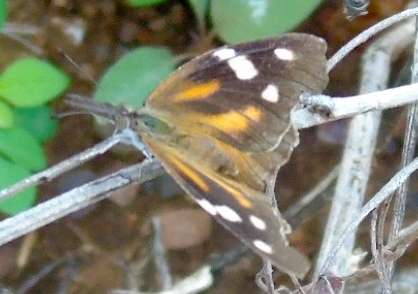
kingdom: Animalia
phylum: Arthropoda
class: Insecta
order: Lepidoptera
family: Nymphalidae
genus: Libytheana
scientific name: Libytheana carinenta
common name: American snout
